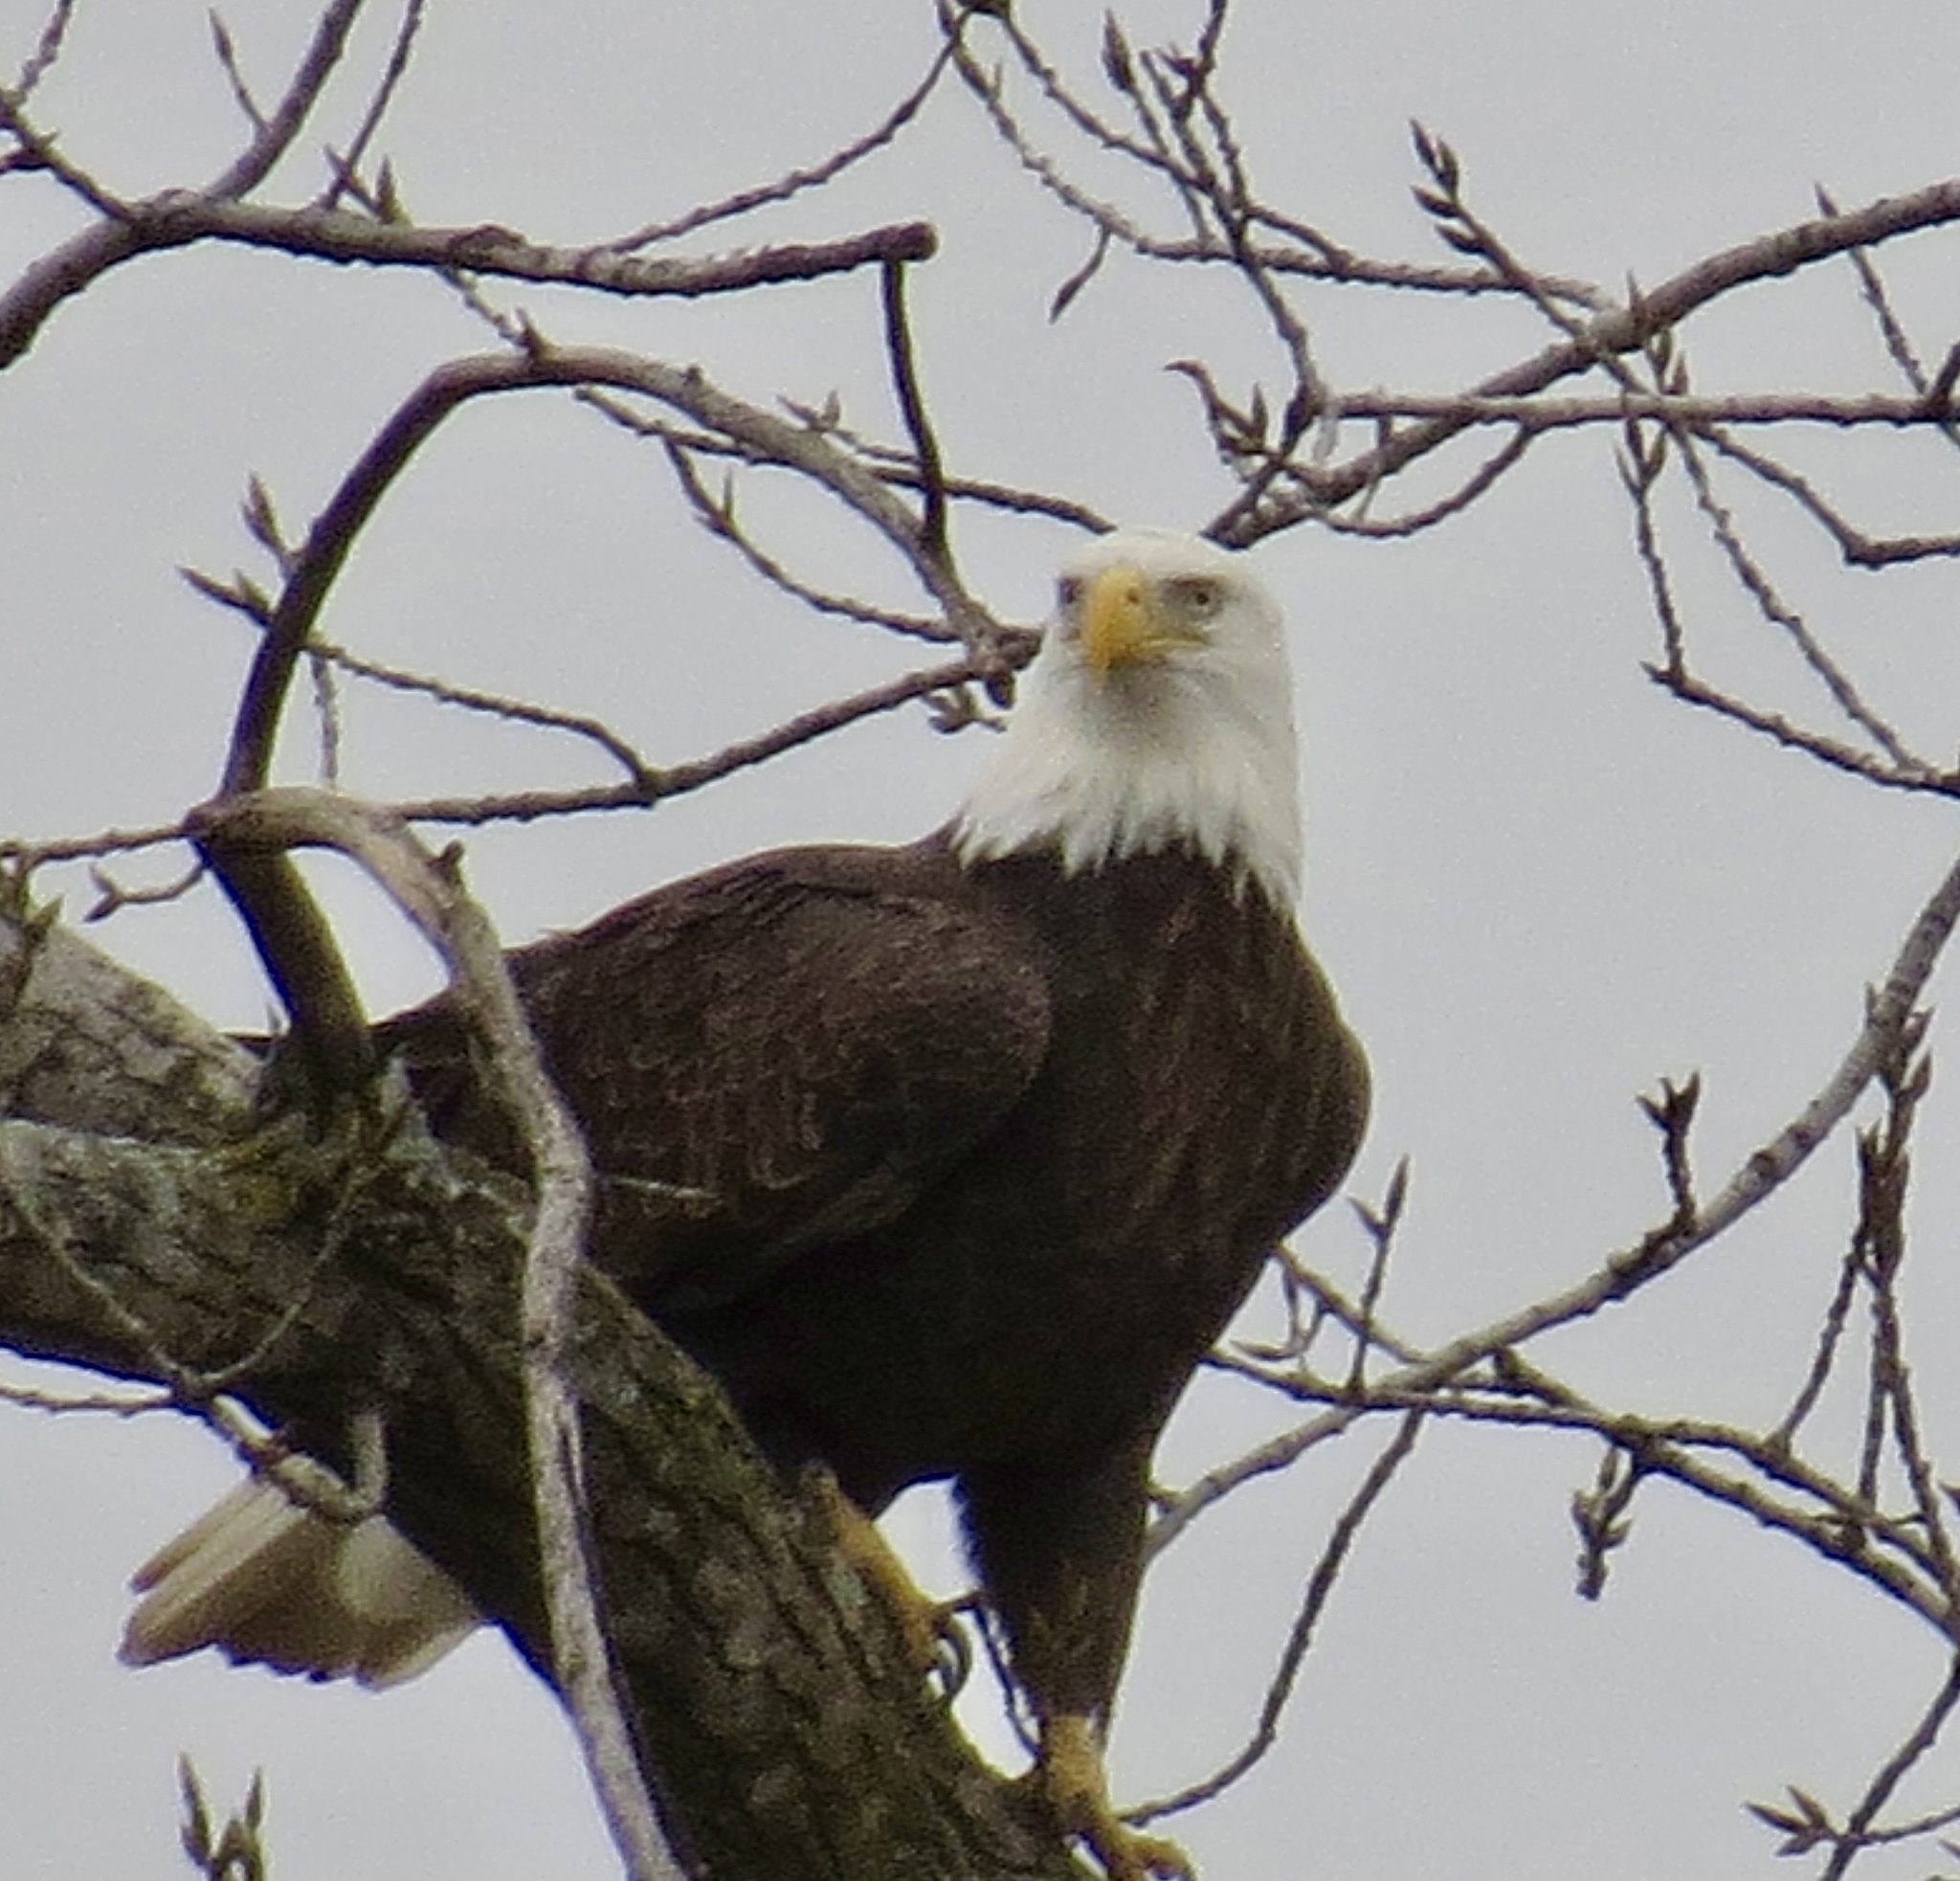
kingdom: Animalia
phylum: Chordata
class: Aves
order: Accipitriformes
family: Accipitridae
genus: Haliaeetus
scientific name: Haliaeetus leucocephalus
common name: Bald eagle
